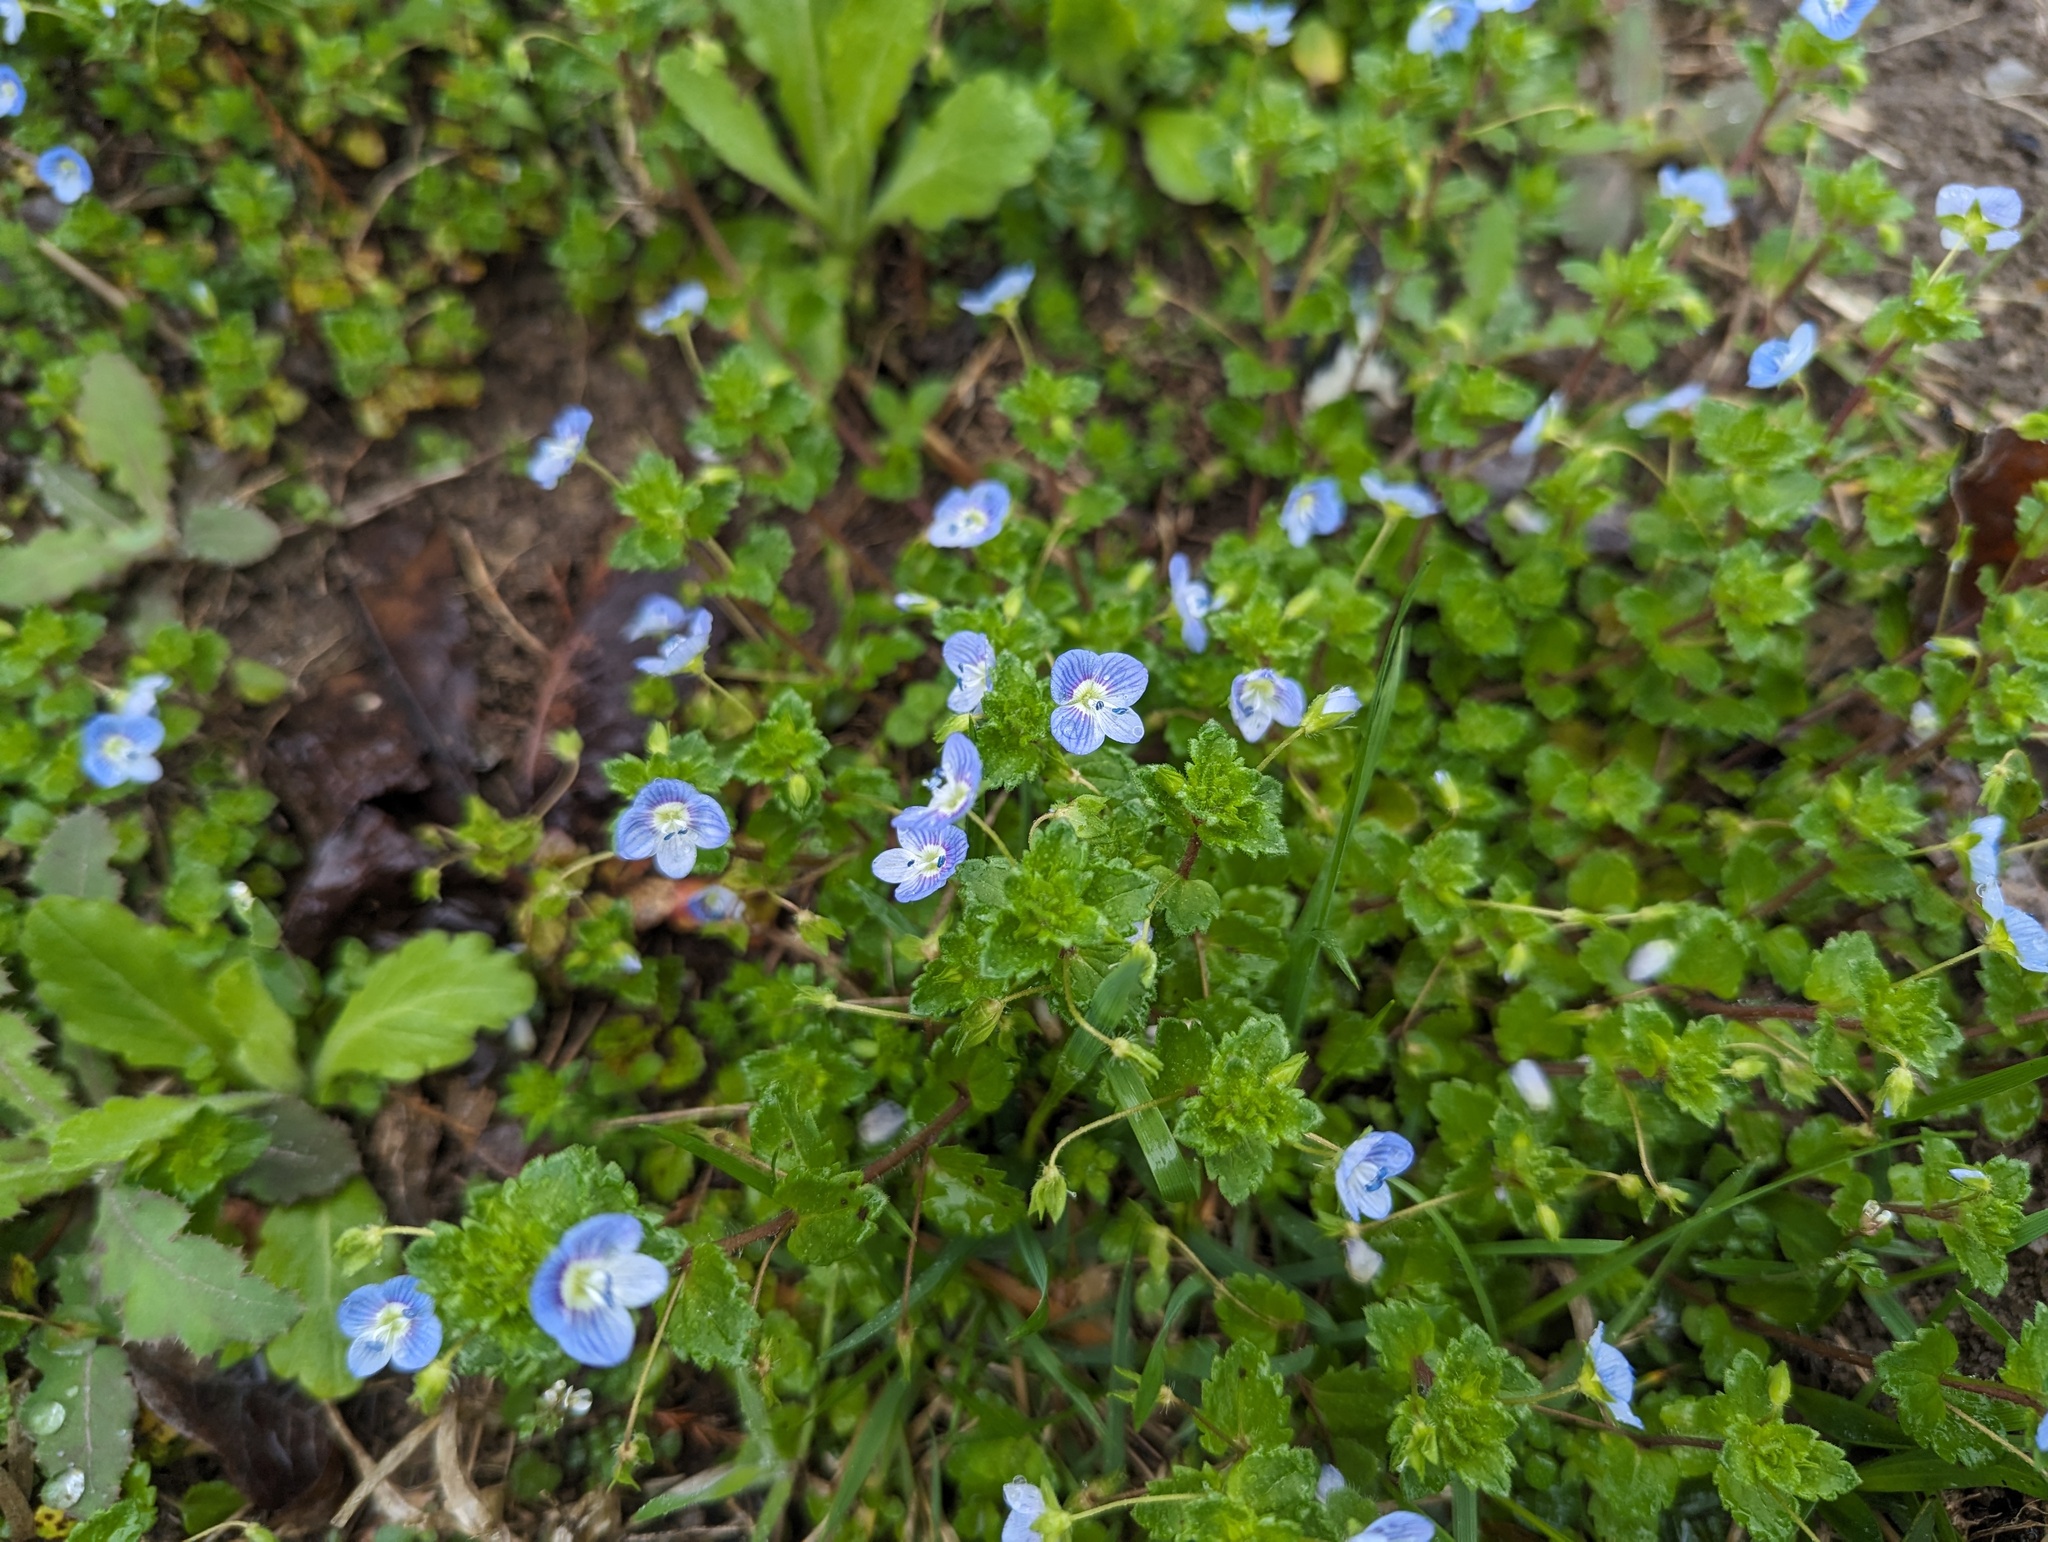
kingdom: Plantae
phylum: Tracheophyta
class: Magnoliopsida
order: Lamiales
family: Plantaginaceae
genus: Veronica
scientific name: Veronica persica
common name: Common field-speedwell
